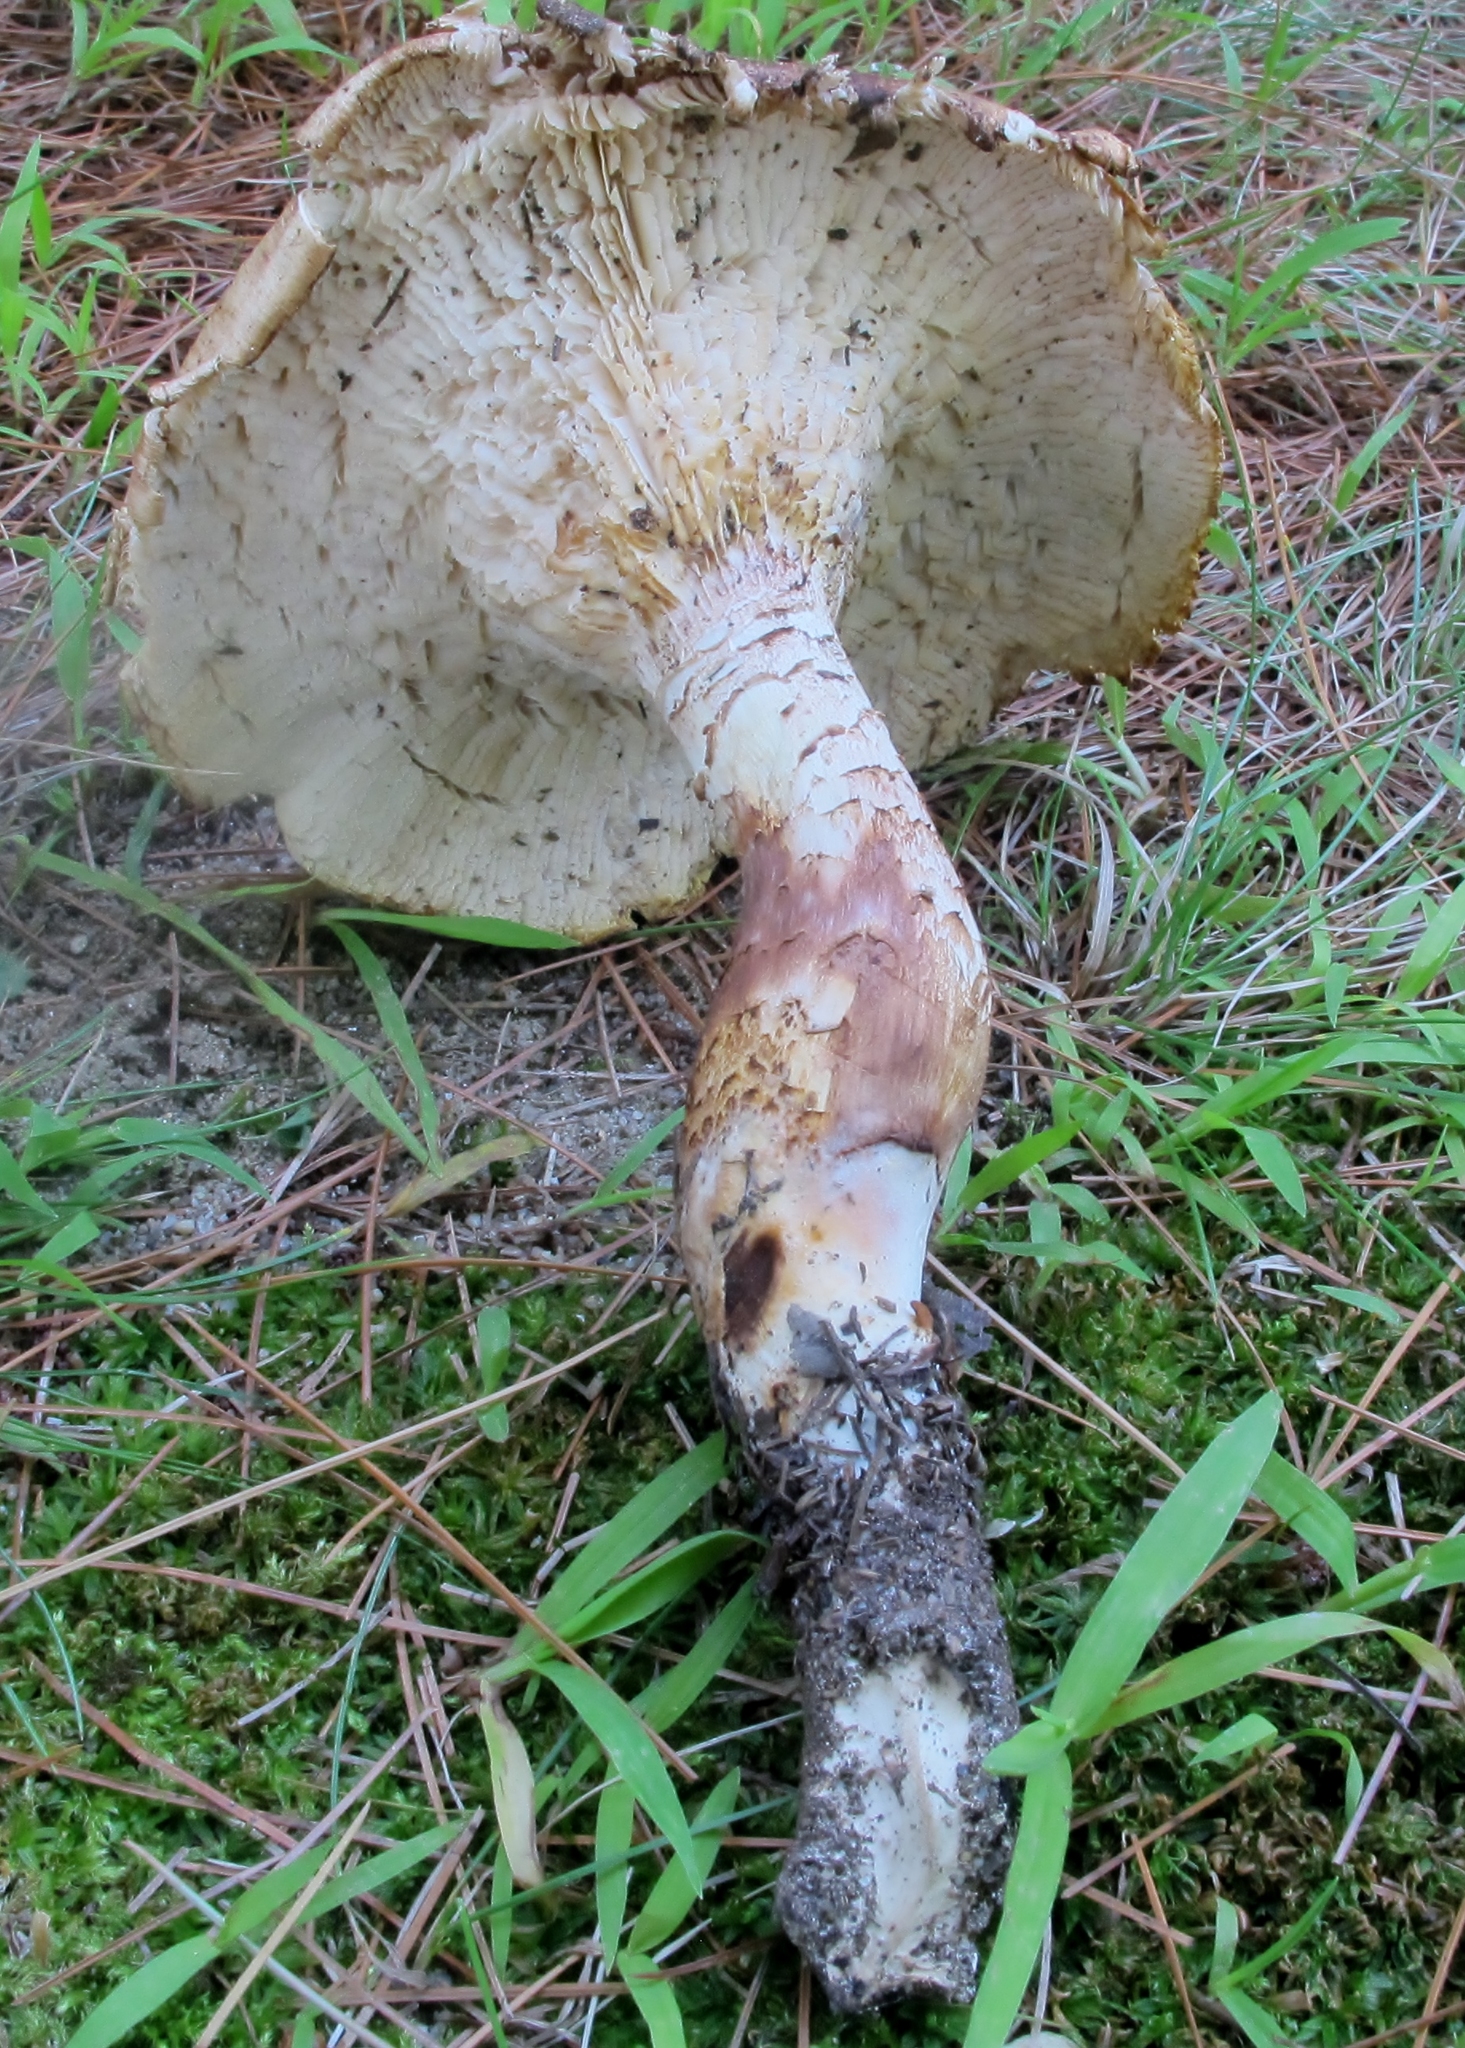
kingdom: Fungi
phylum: Basidiomycota
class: Agaricomycetes
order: Gloeophyllales
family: Gloeophyllaceae
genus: Neolentinus
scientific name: Neolentinus lepideus
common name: Scaly sawgill
